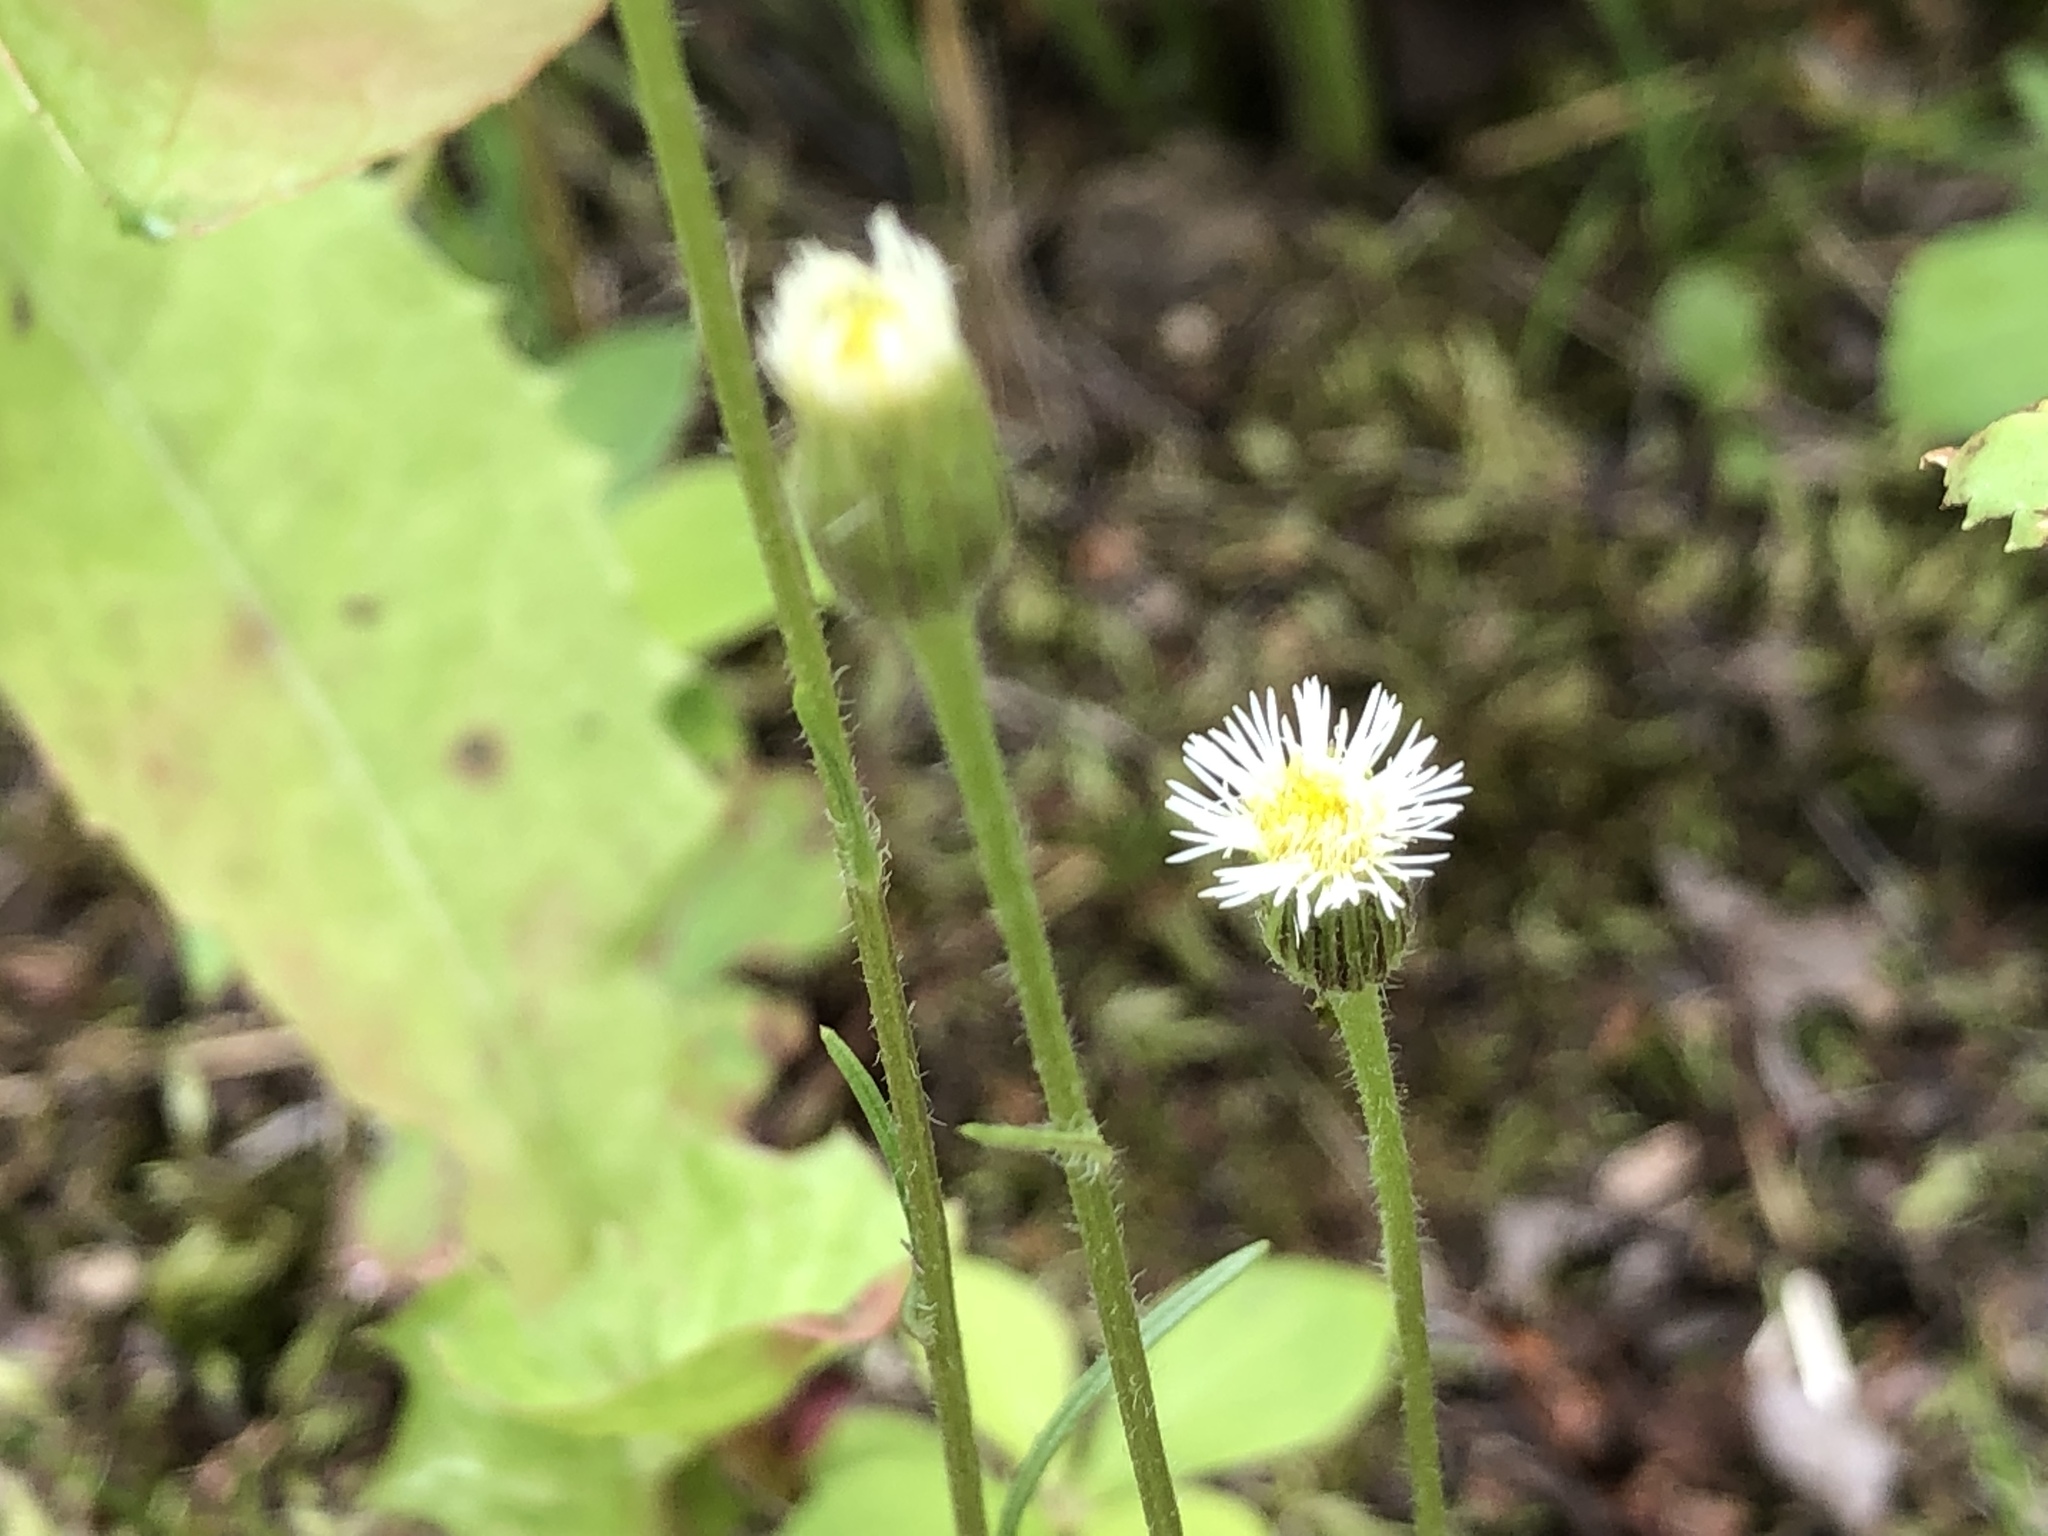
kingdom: Plantae
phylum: Tracheophyta
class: Magnoliopsida
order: Asterales
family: Asteraceae
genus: Erigeron
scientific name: Erigeron lonchophyllus
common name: Short-ray fleabane
